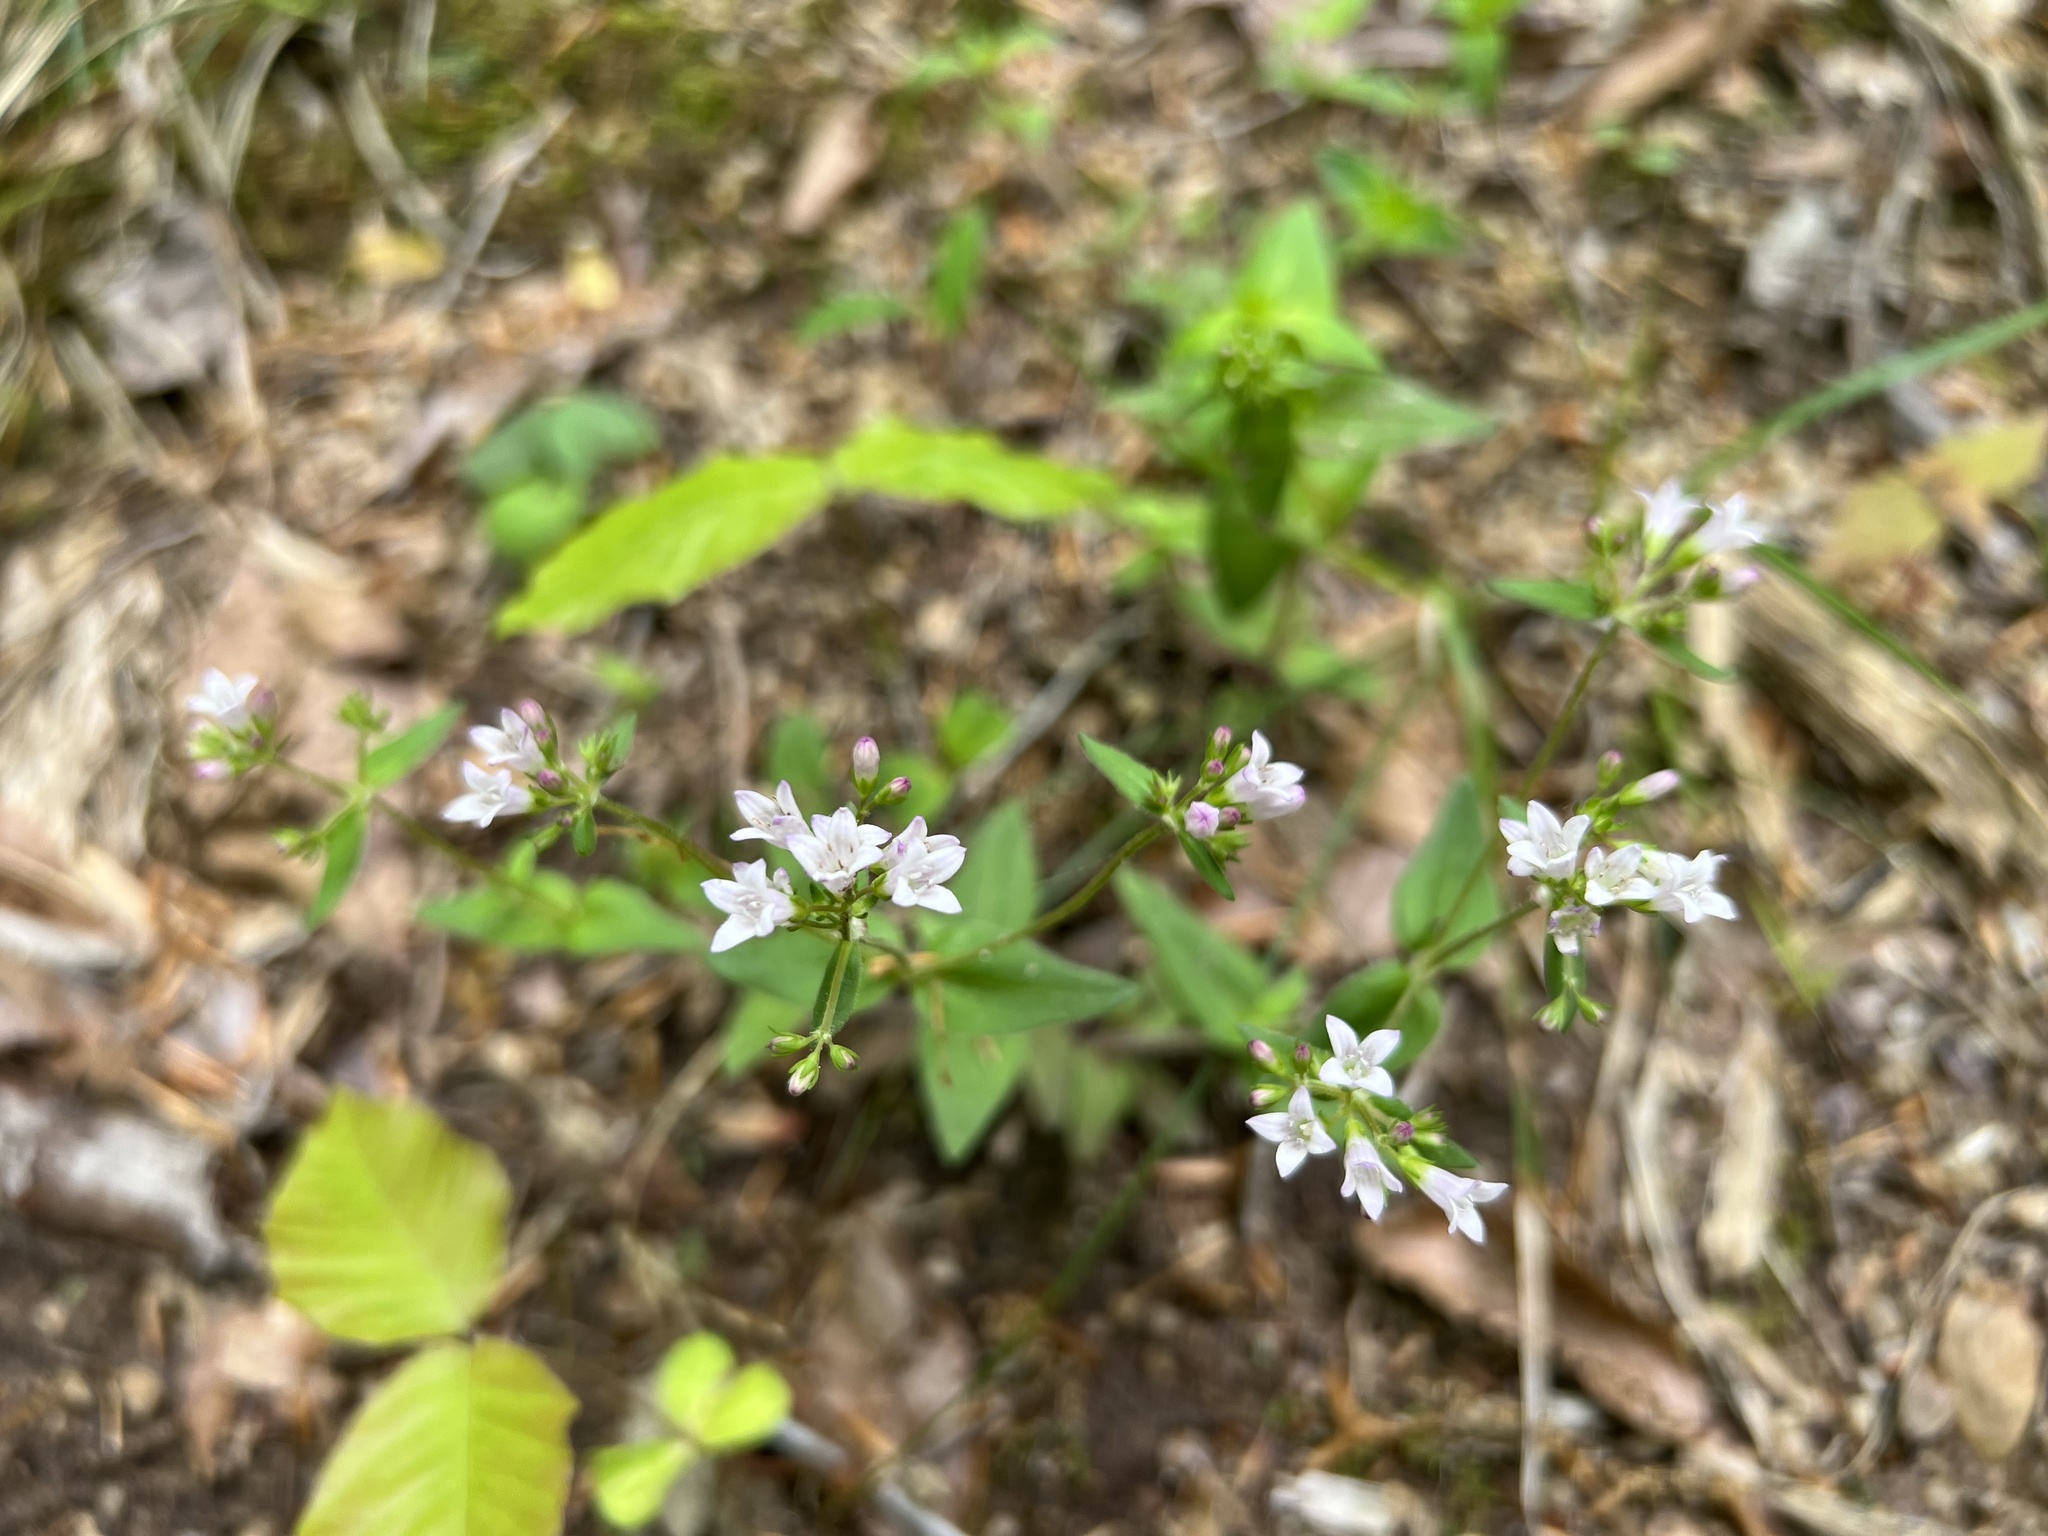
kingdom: Plantae
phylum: Tracheophyta
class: Magnoliopsida
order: Gentianales
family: Rubiaceae
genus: Houstonia
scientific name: Houstonia purpurea
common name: Summer bluet
